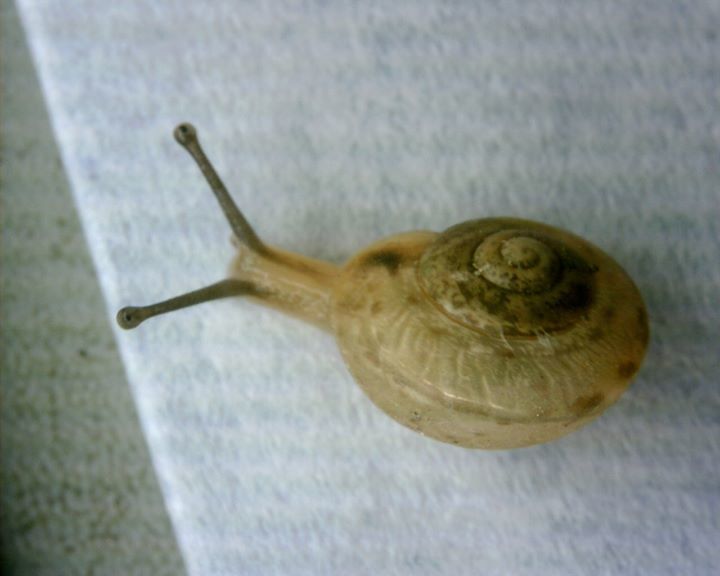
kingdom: Animalia
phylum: Mollusca
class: Gastropoda
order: Stylommatophora
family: Camaenidae
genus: Bradybaena
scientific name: Bradybaena similaris
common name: Asian trampsnail
